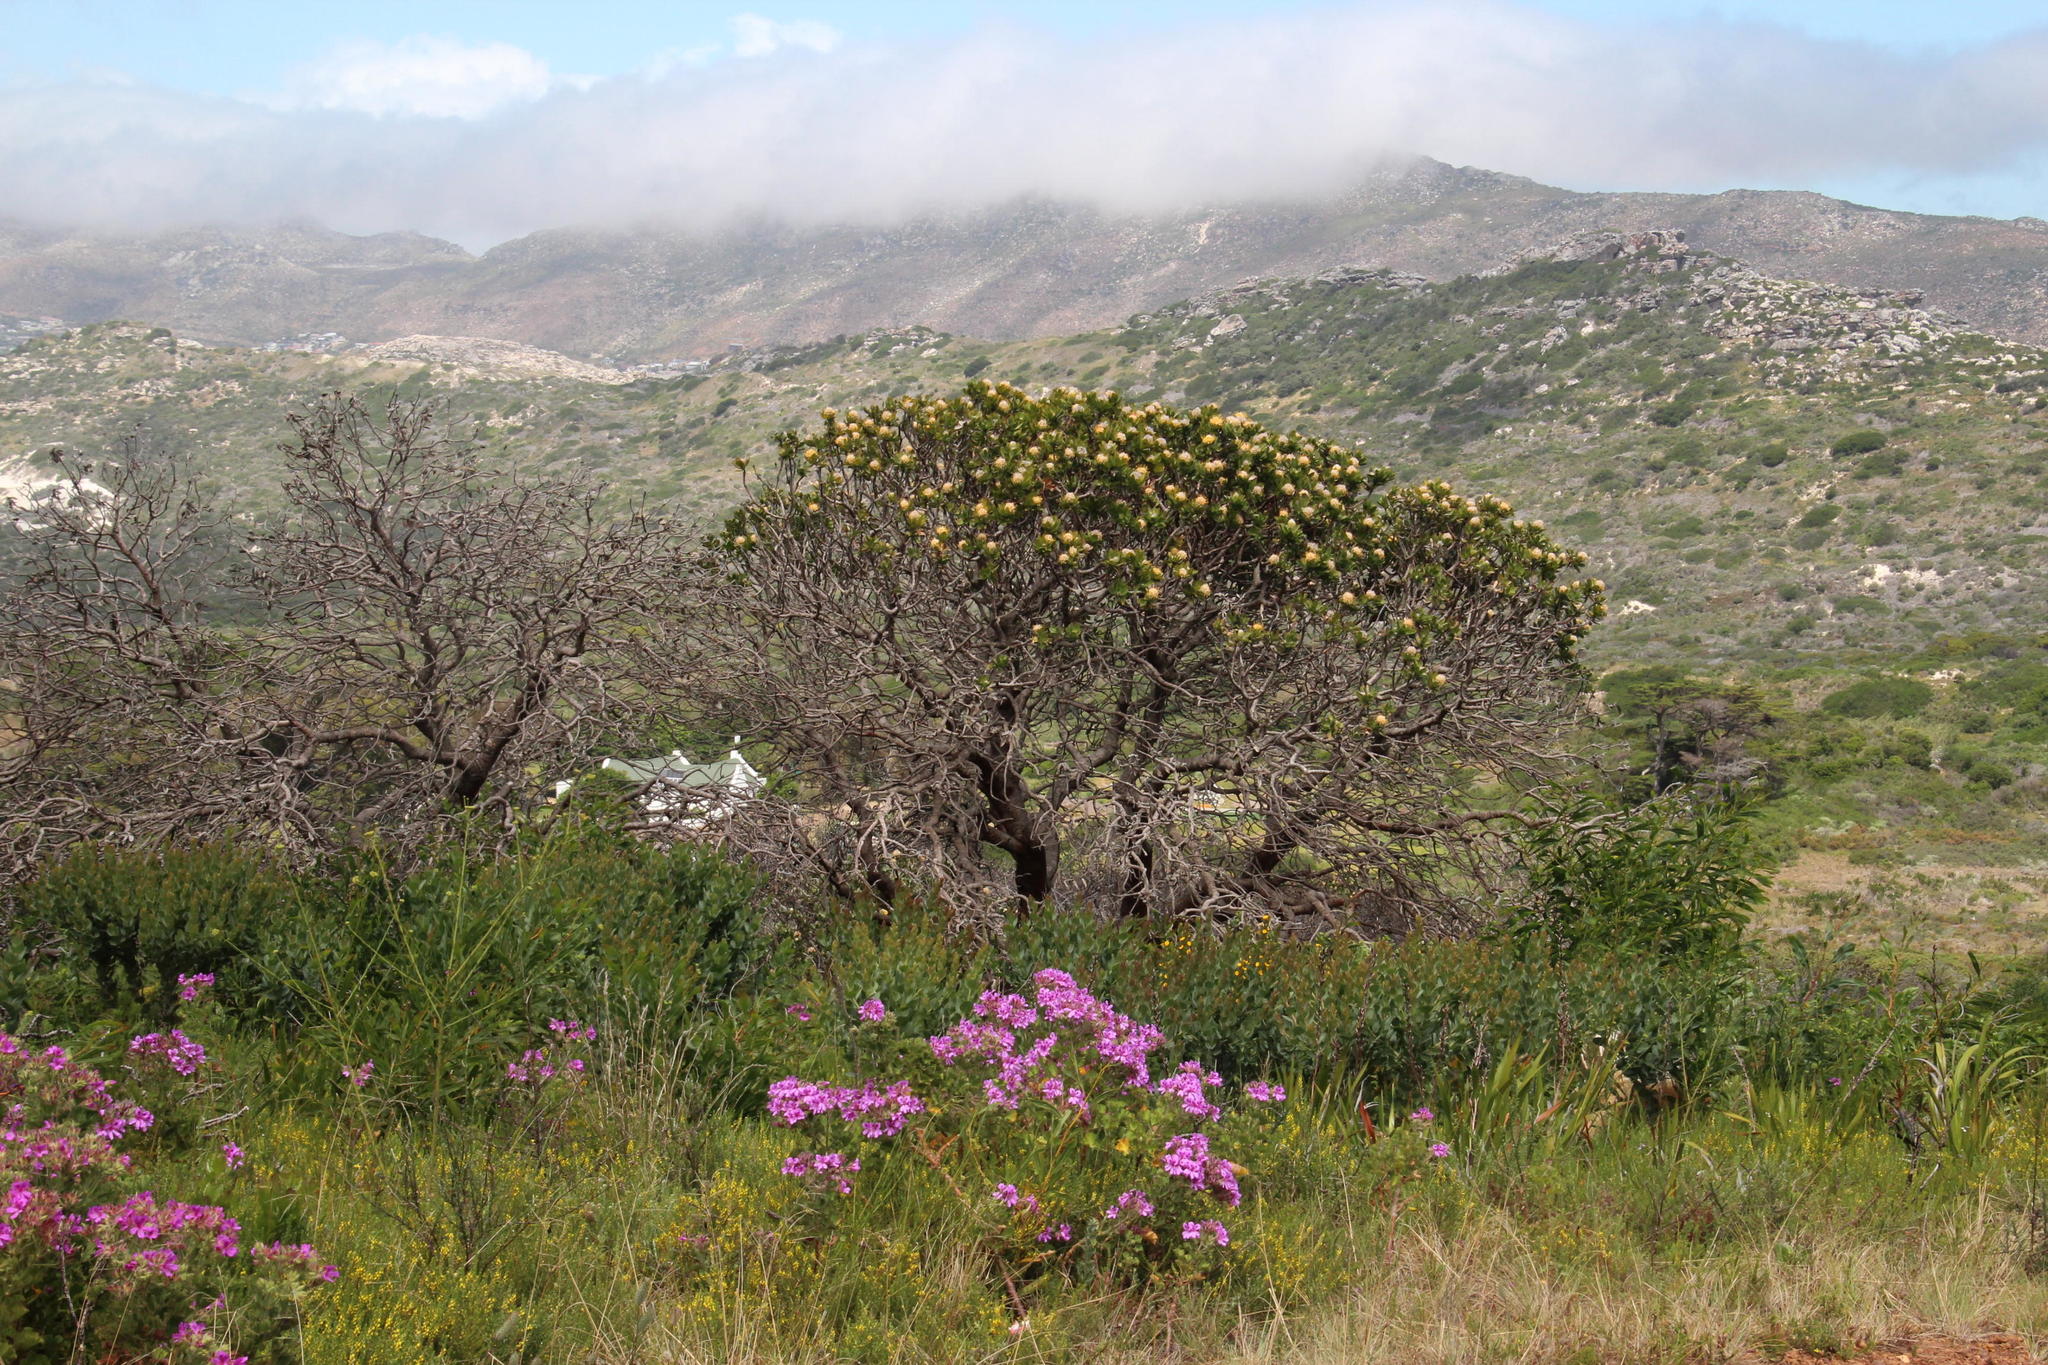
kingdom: Plantae
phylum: Tracheophyta
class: Magnoliopsida
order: Geraniales
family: Geraniaceae
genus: Pelargonium
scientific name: Pelargonium cucullatum
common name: Tree pelargonium
